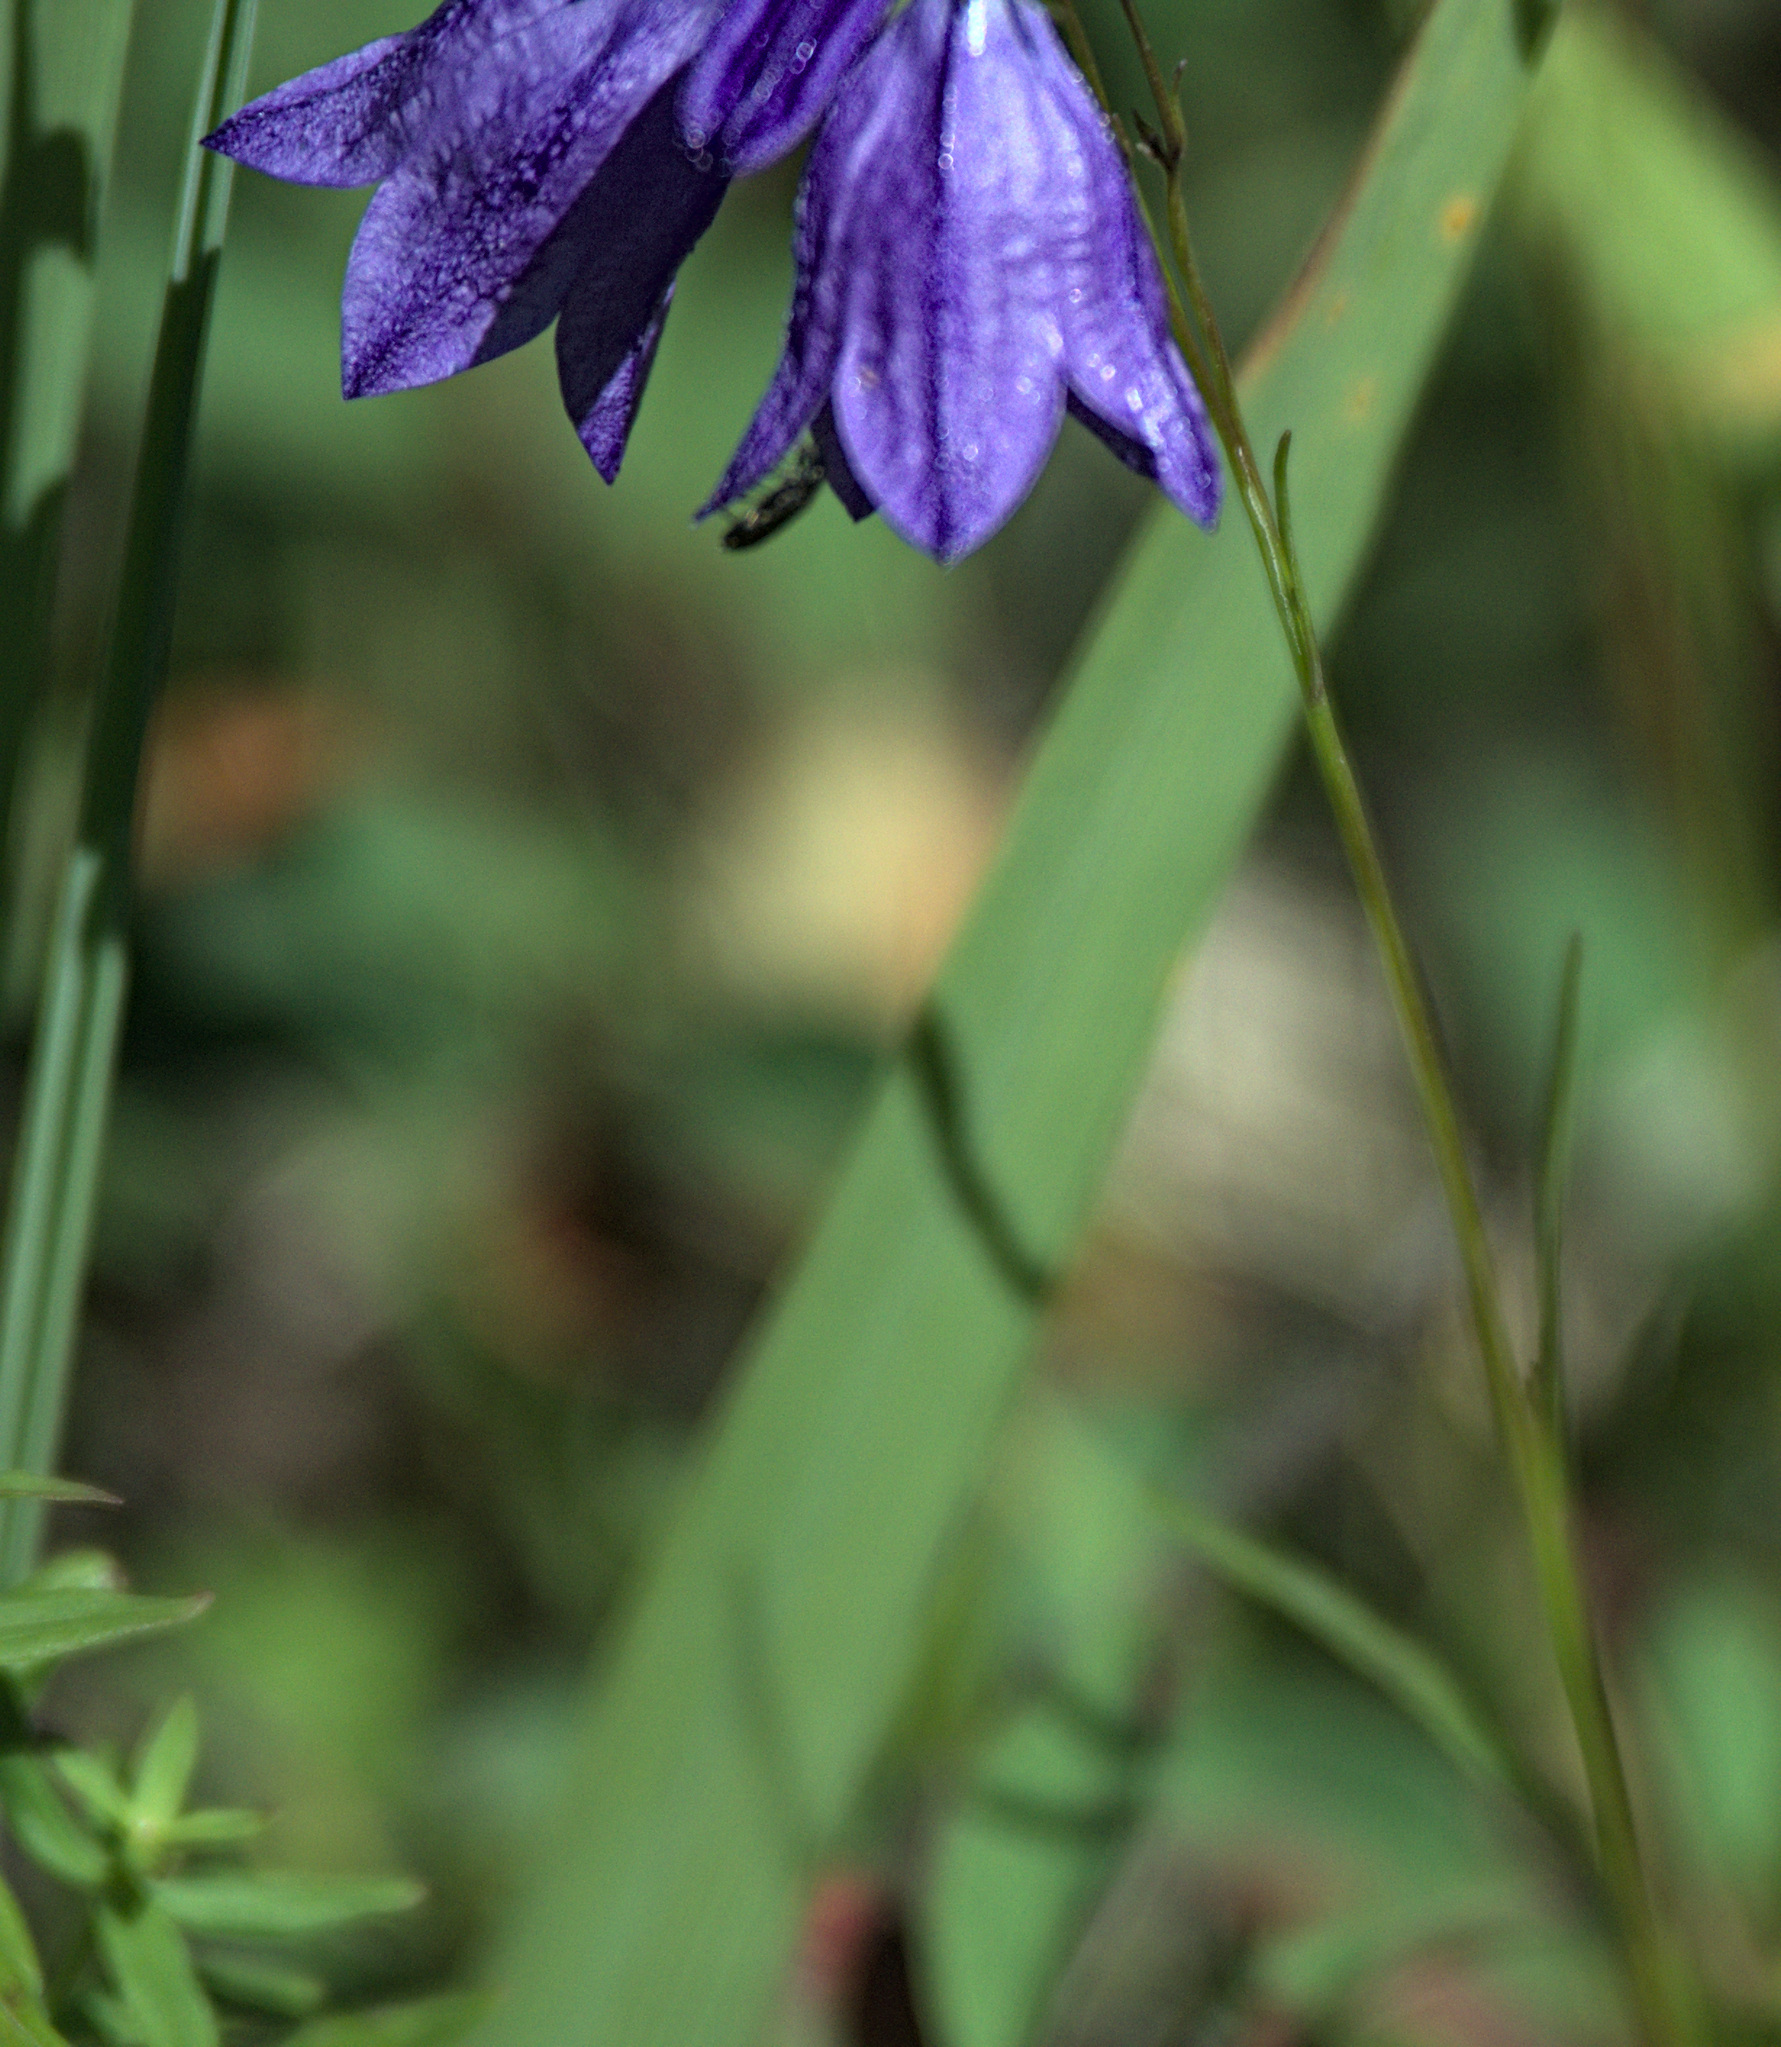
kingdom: Plantae
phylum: Tracheophyta
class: Magnoliopsida
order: Asterales
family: Campanulaceae
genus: Campanula
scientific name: Campanula rotundifolia
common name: Harebell
